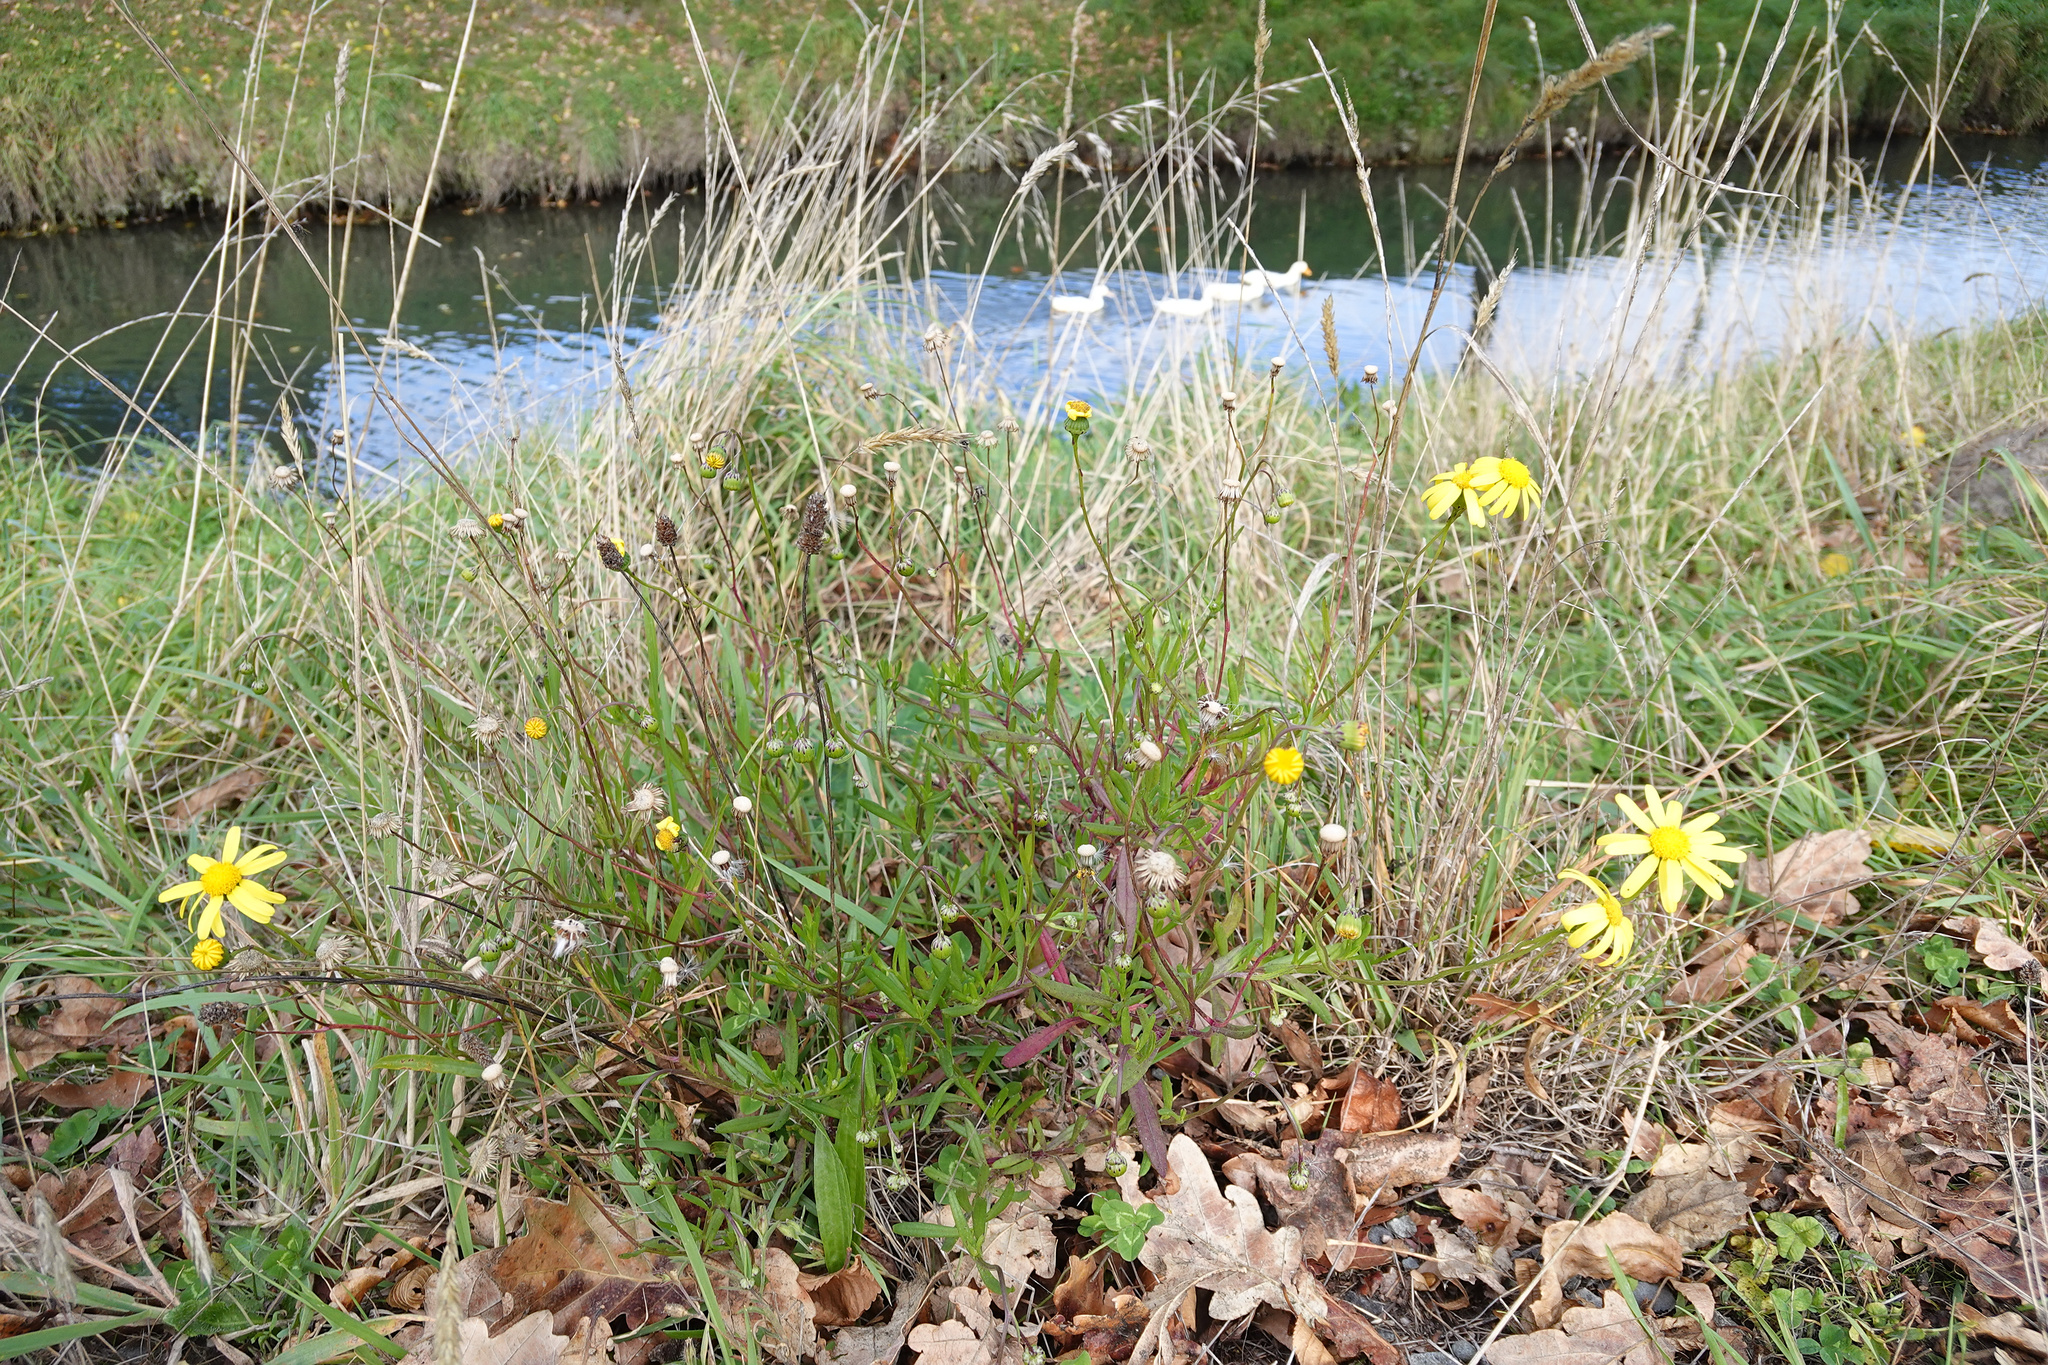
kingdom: Plantae
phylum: Tracheophyta
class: Magnoliopsida
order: Asterales
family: Asteraceae
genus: Senecio
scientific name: Senecio skirrhodon
